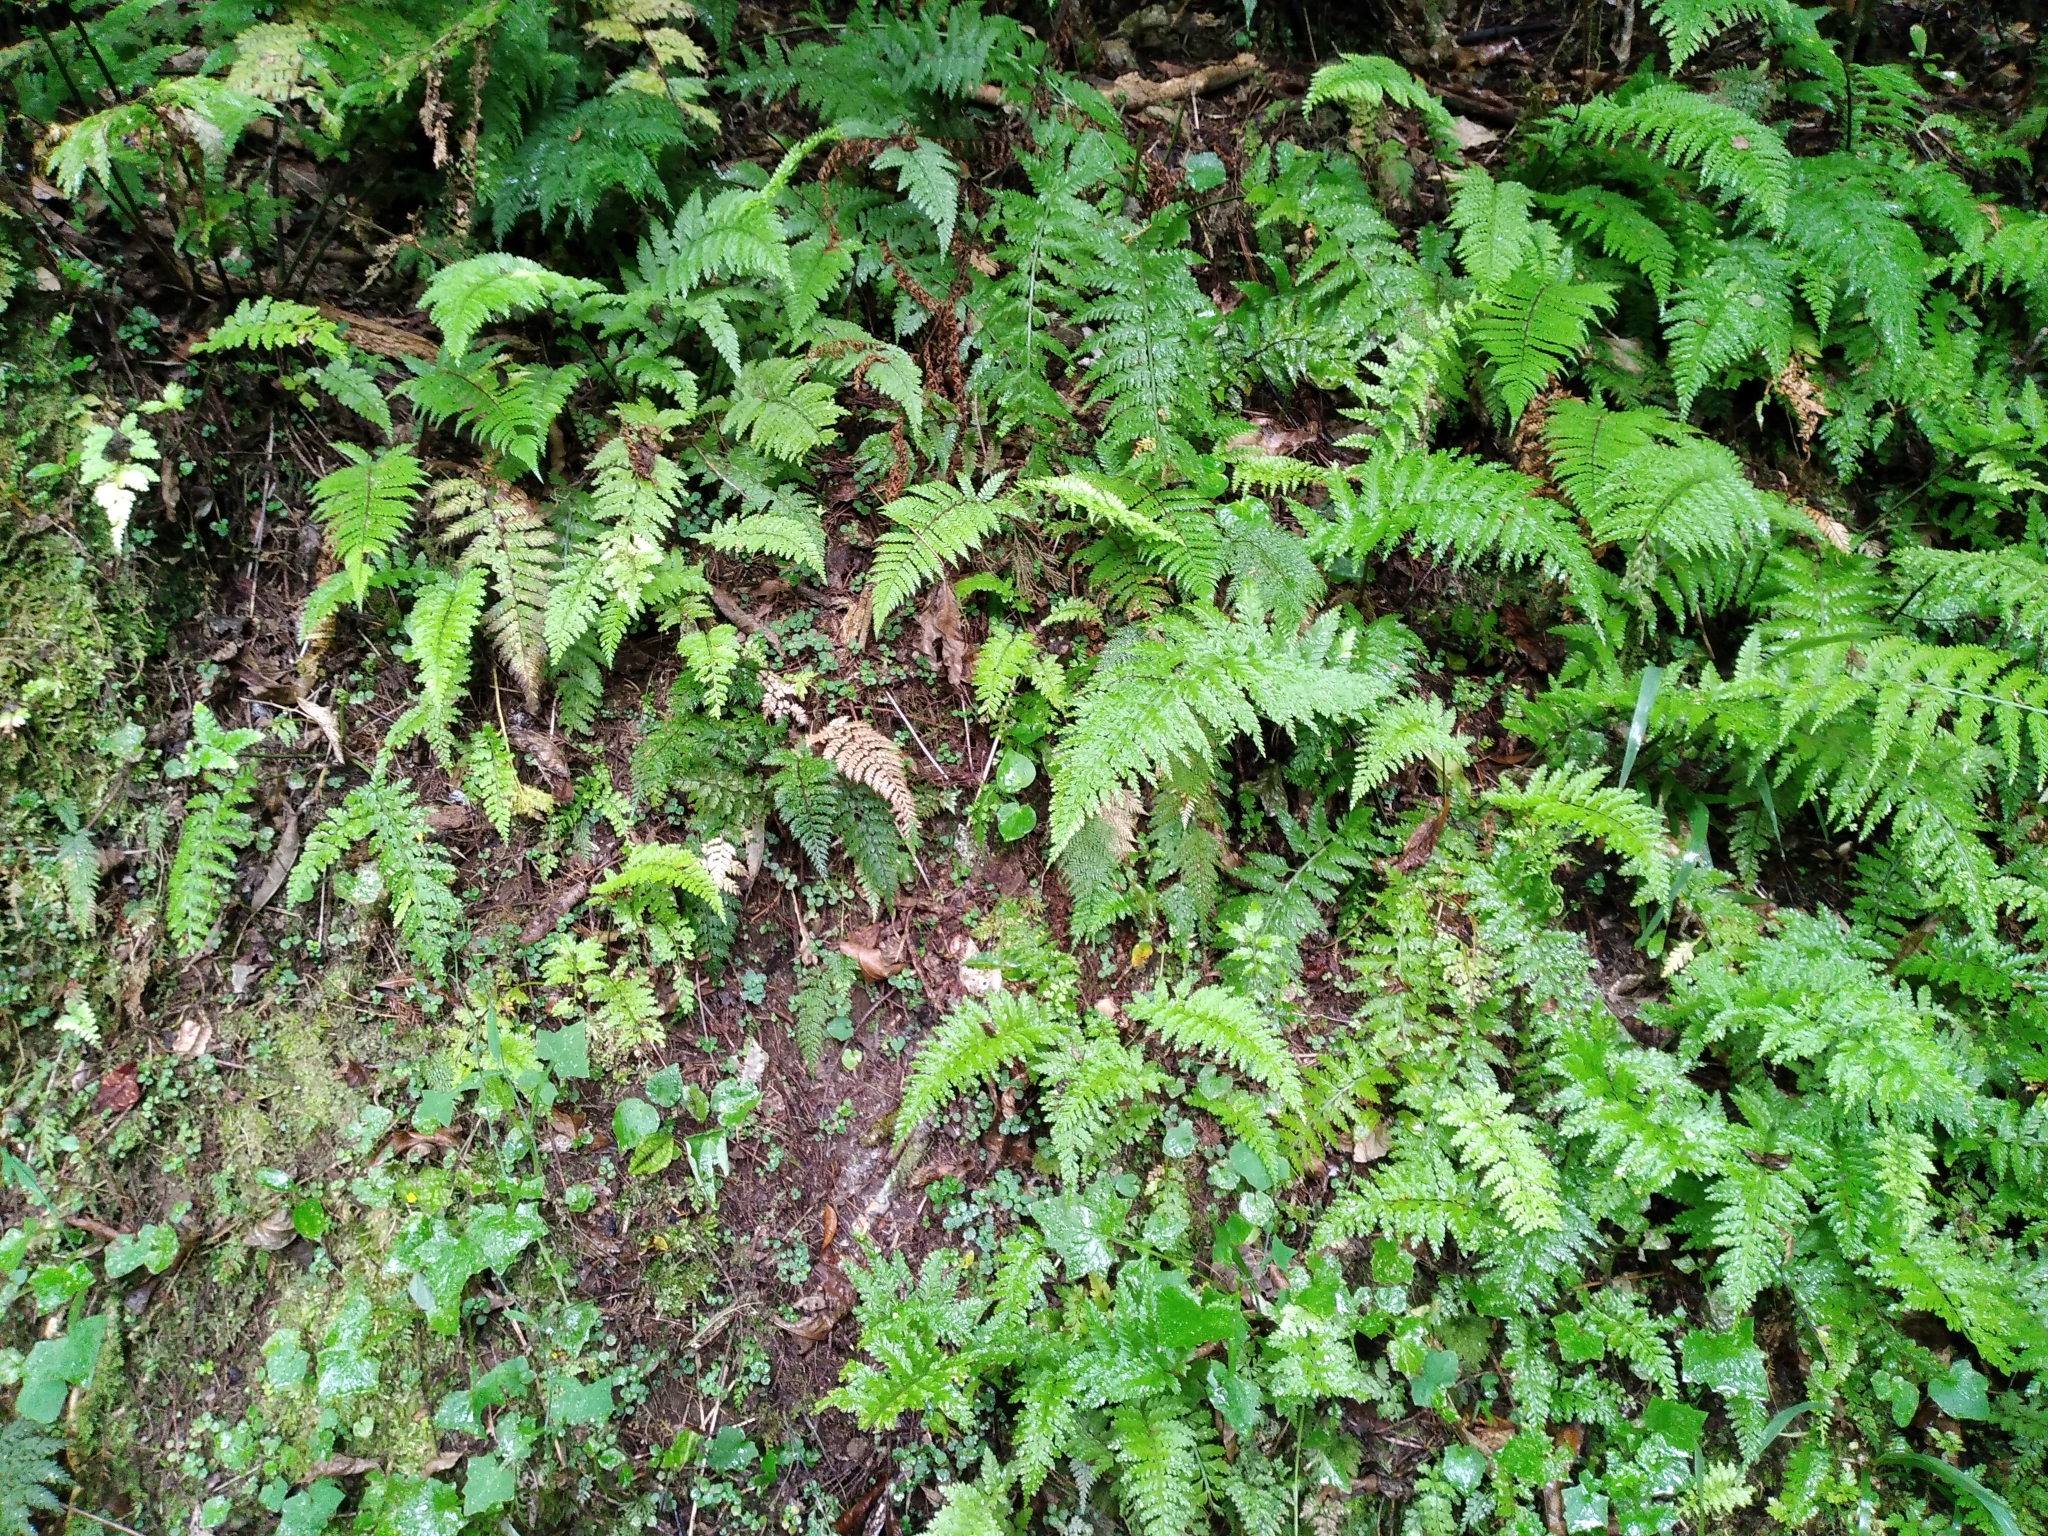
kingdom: Plantae
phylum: Tracheophyta
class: Polypodiopsida
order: Polypodiales
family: Dryopteridaceae
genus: Polystichum
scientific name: Polystichum silvaticum
